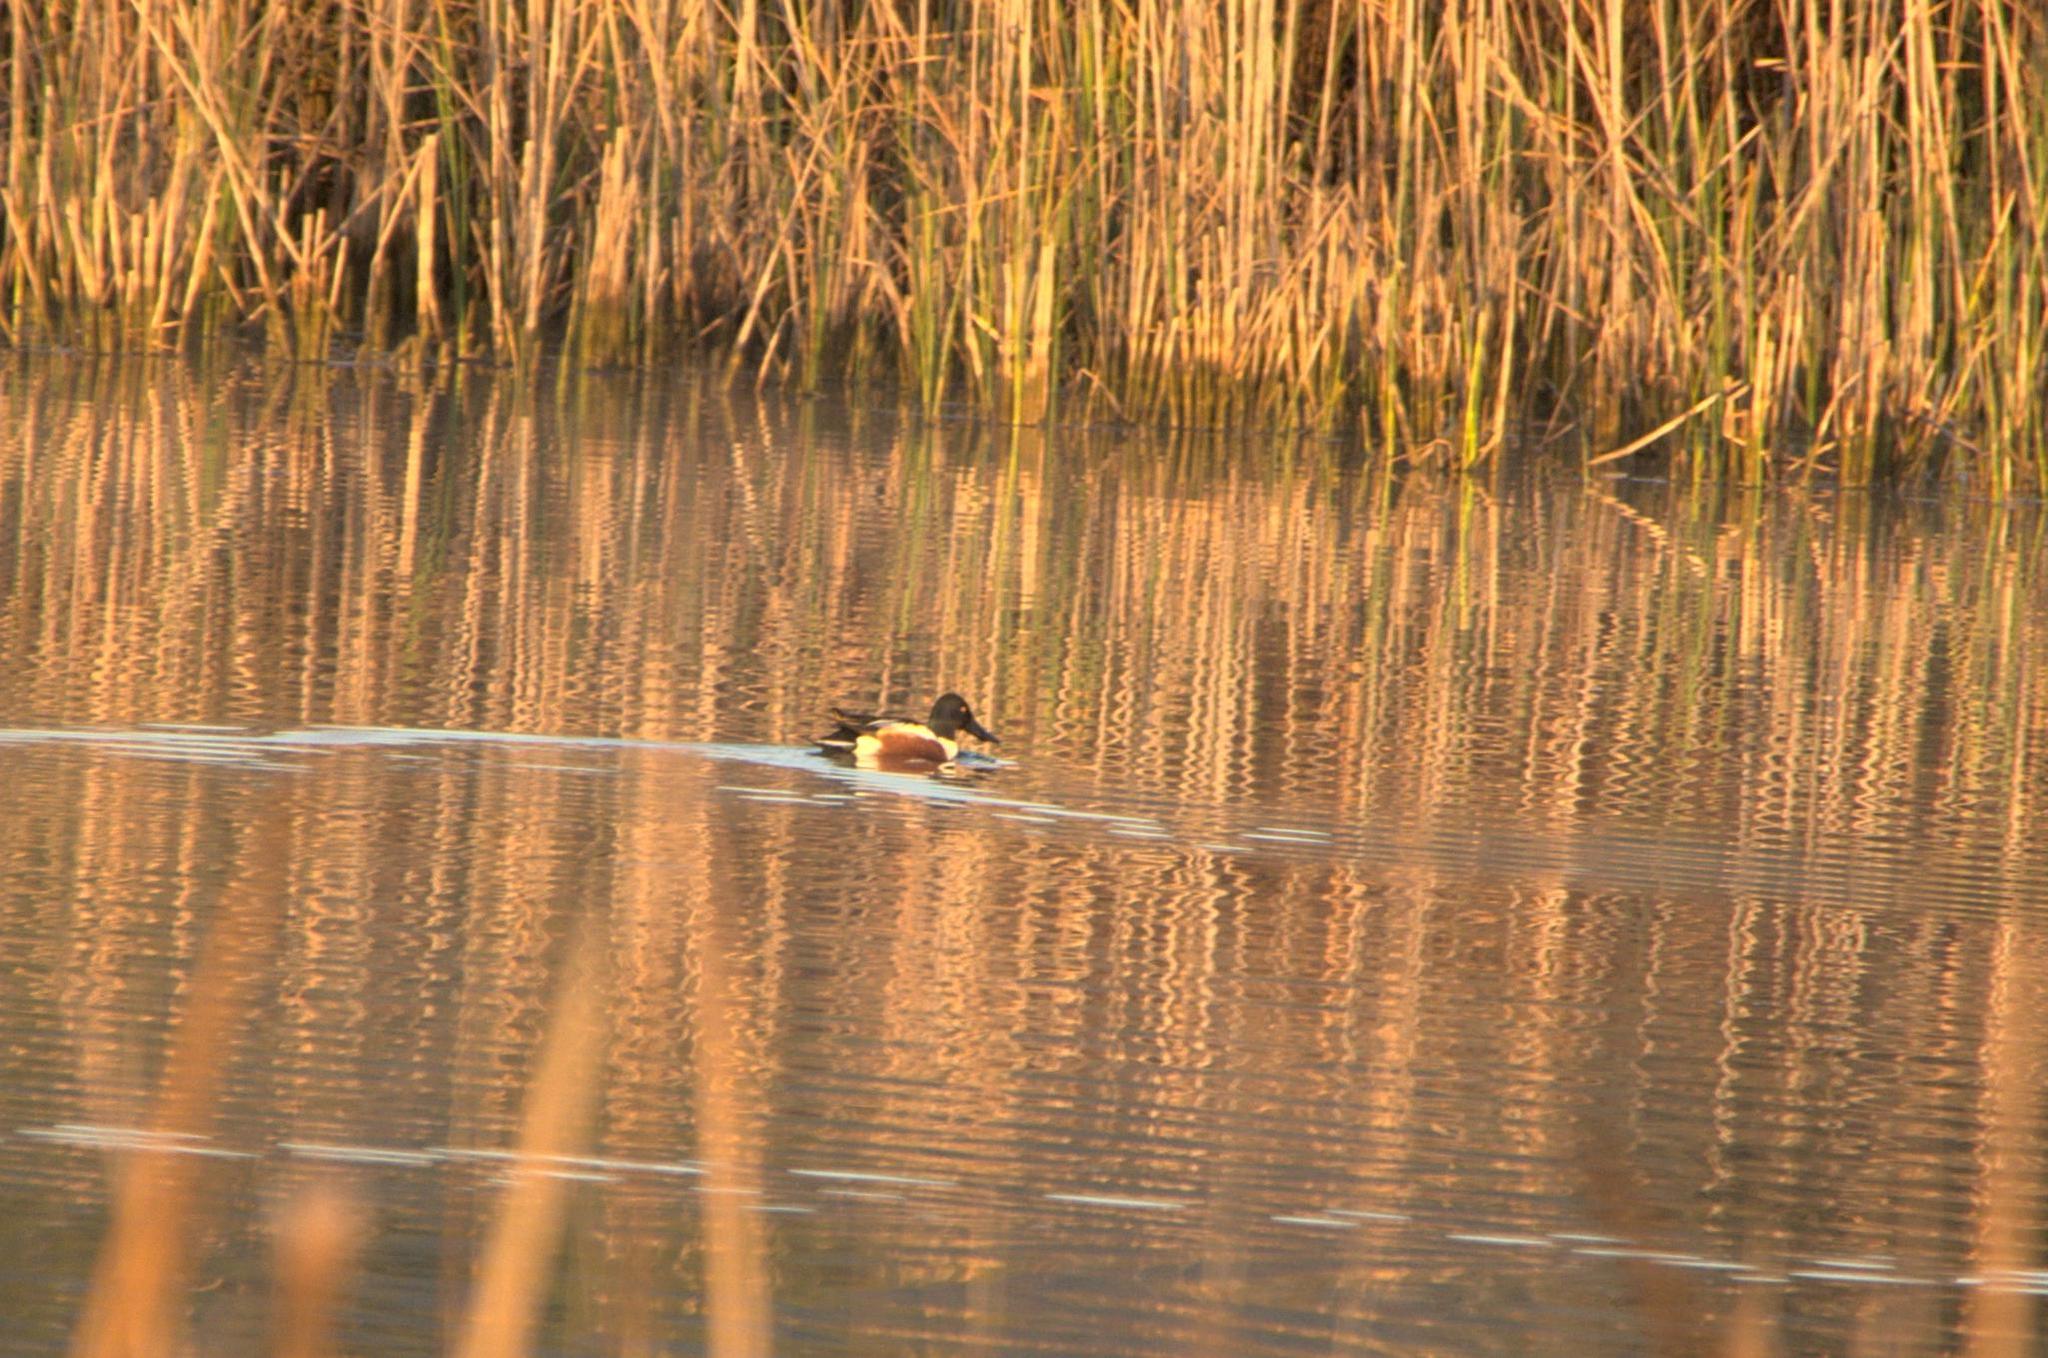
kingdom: Animalia
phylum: Chordata
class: Aves
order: Anseriformes
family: Anatidae
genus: Spatula
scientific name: Spatula clypeata
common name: Northern shoveler
